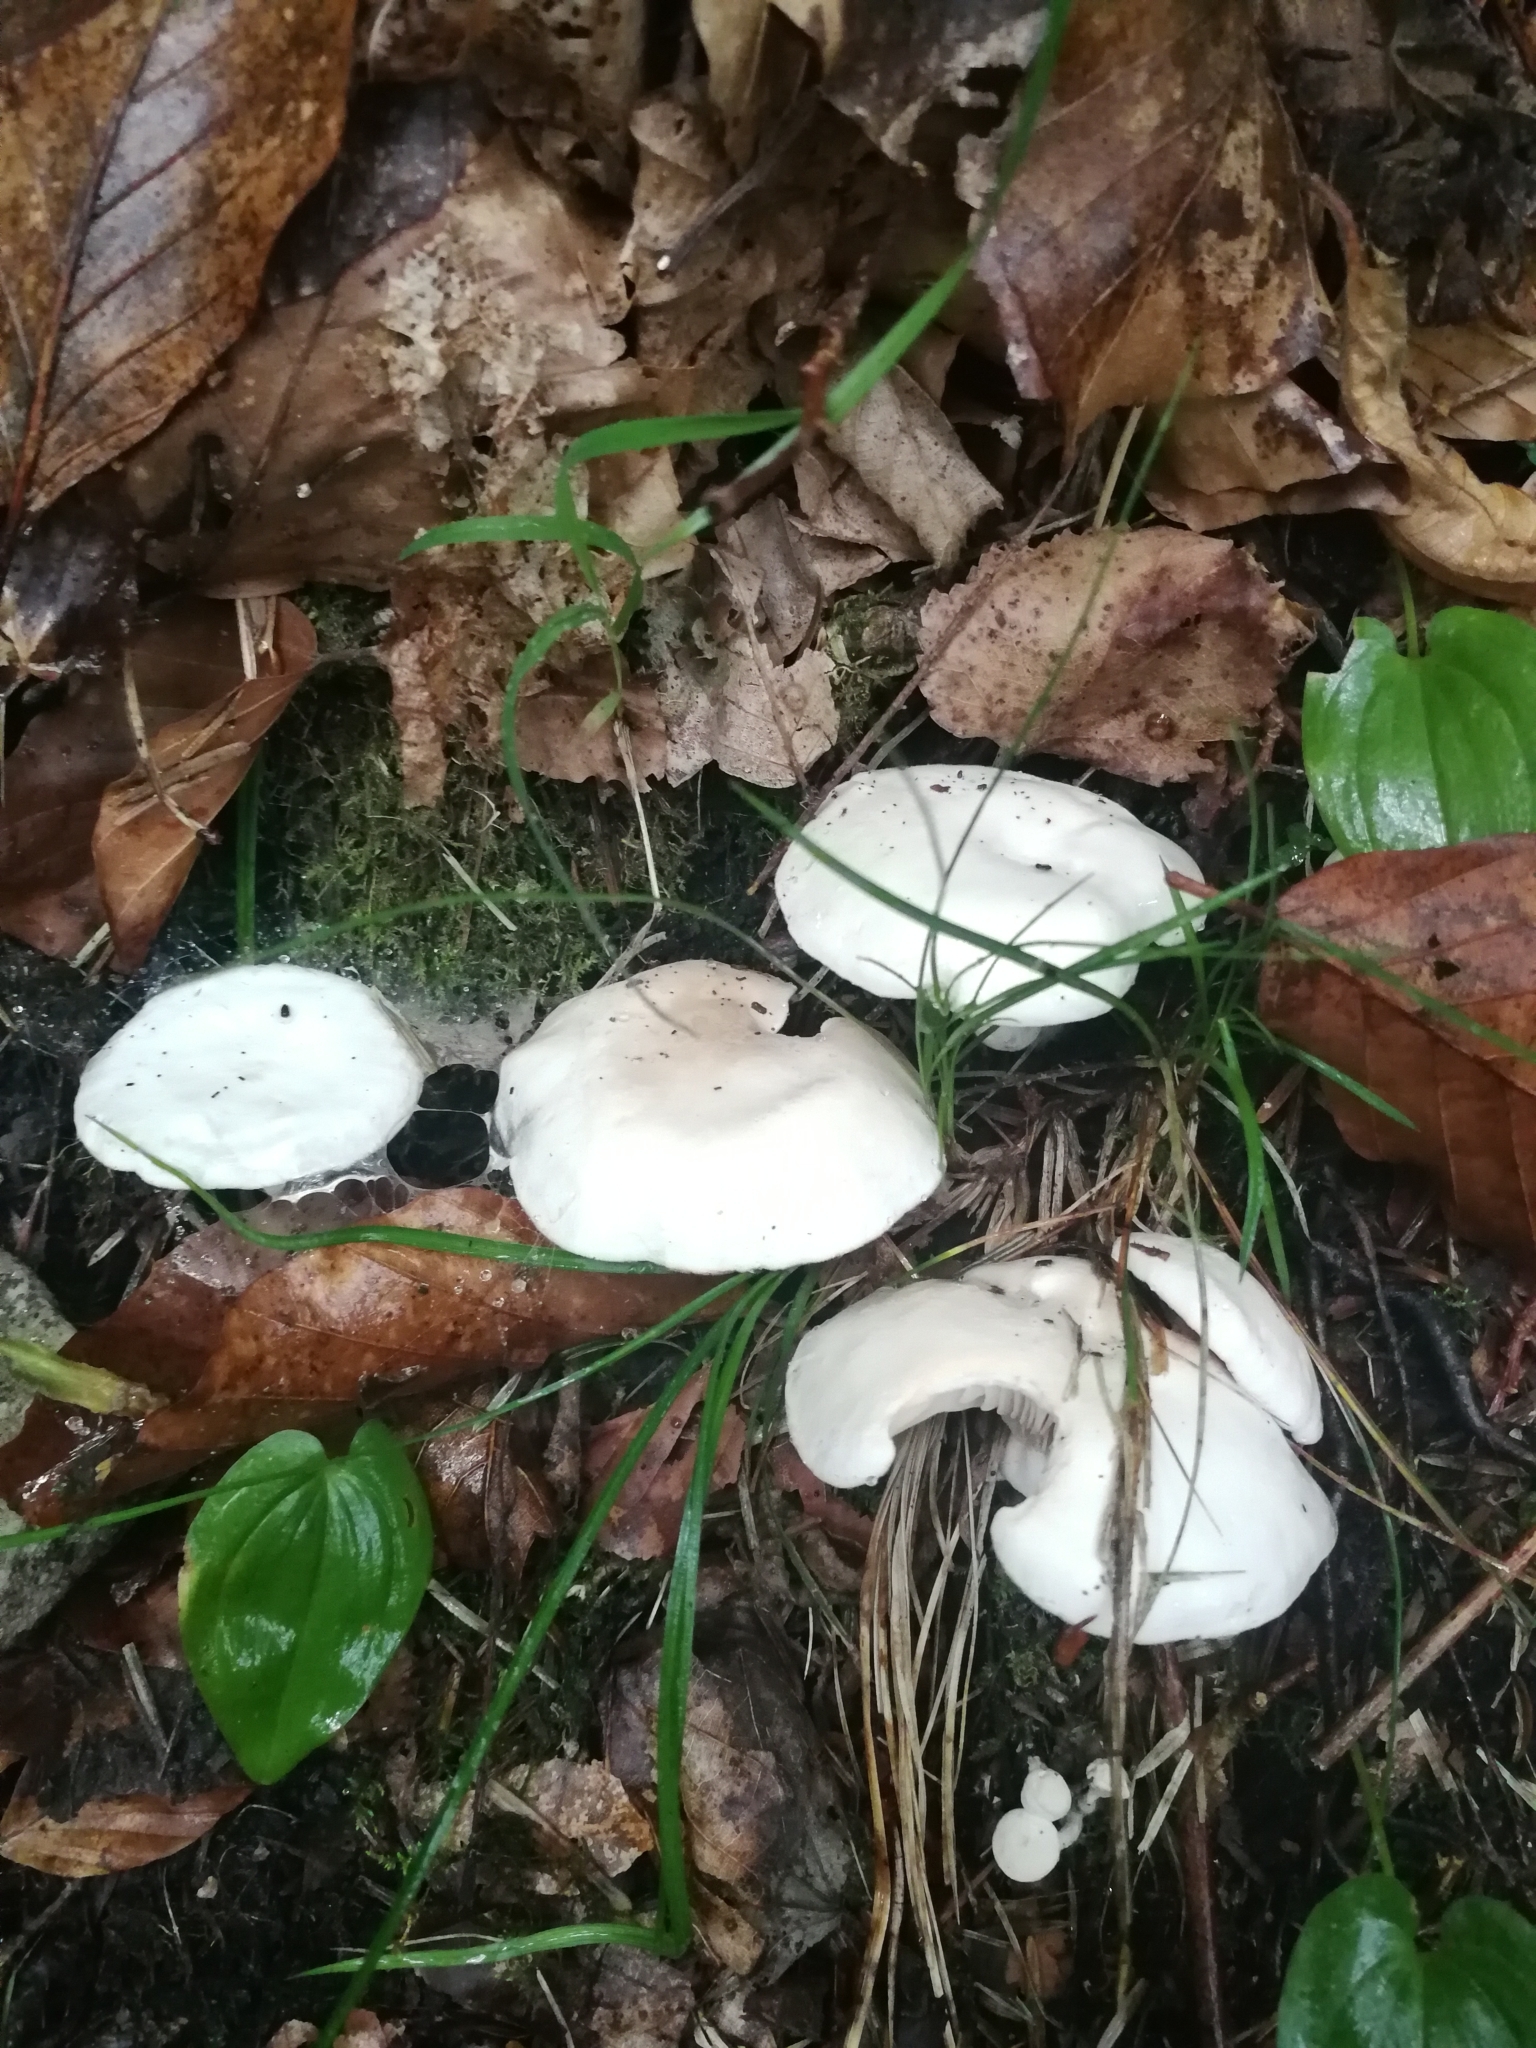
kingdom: Fungi
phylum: Basidiomycota
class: Agaricomycetes
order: Agaricales
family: Entolomataceae
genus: Clitopilus
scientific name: Clitopilus prunulus
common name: The miller
